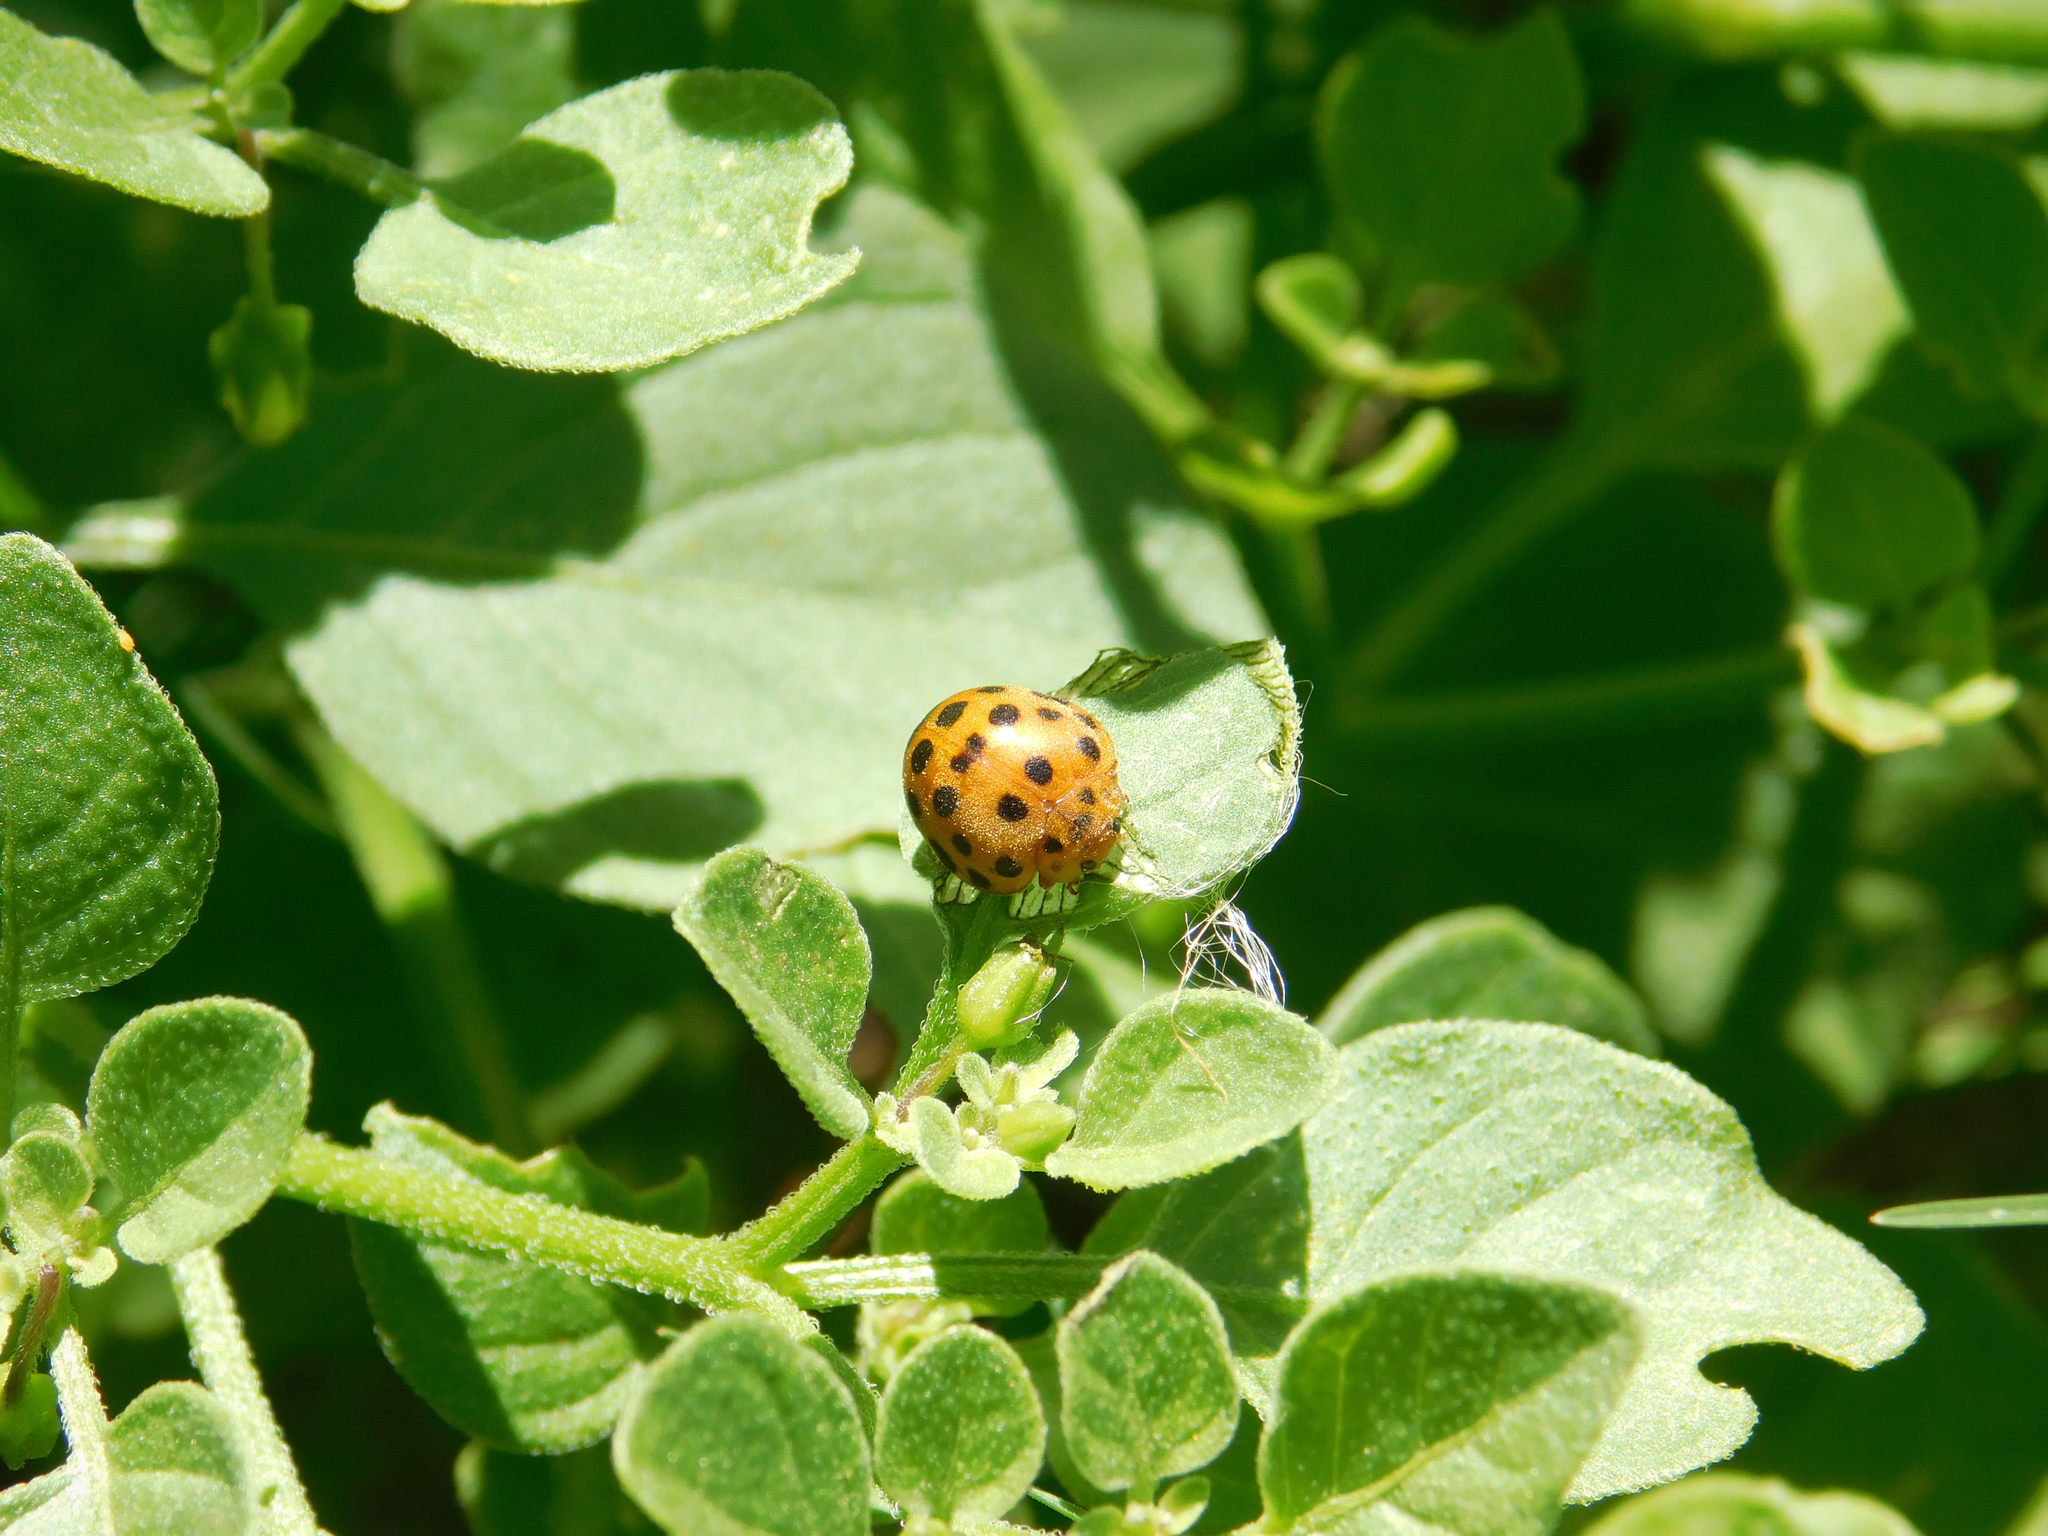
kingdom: Animalia
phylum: Arthropoda
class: Insecta
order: Coleoptera
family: Coccinellidae
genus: Henosepilachna
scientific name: Henosepilachna vigintioctopunctata
